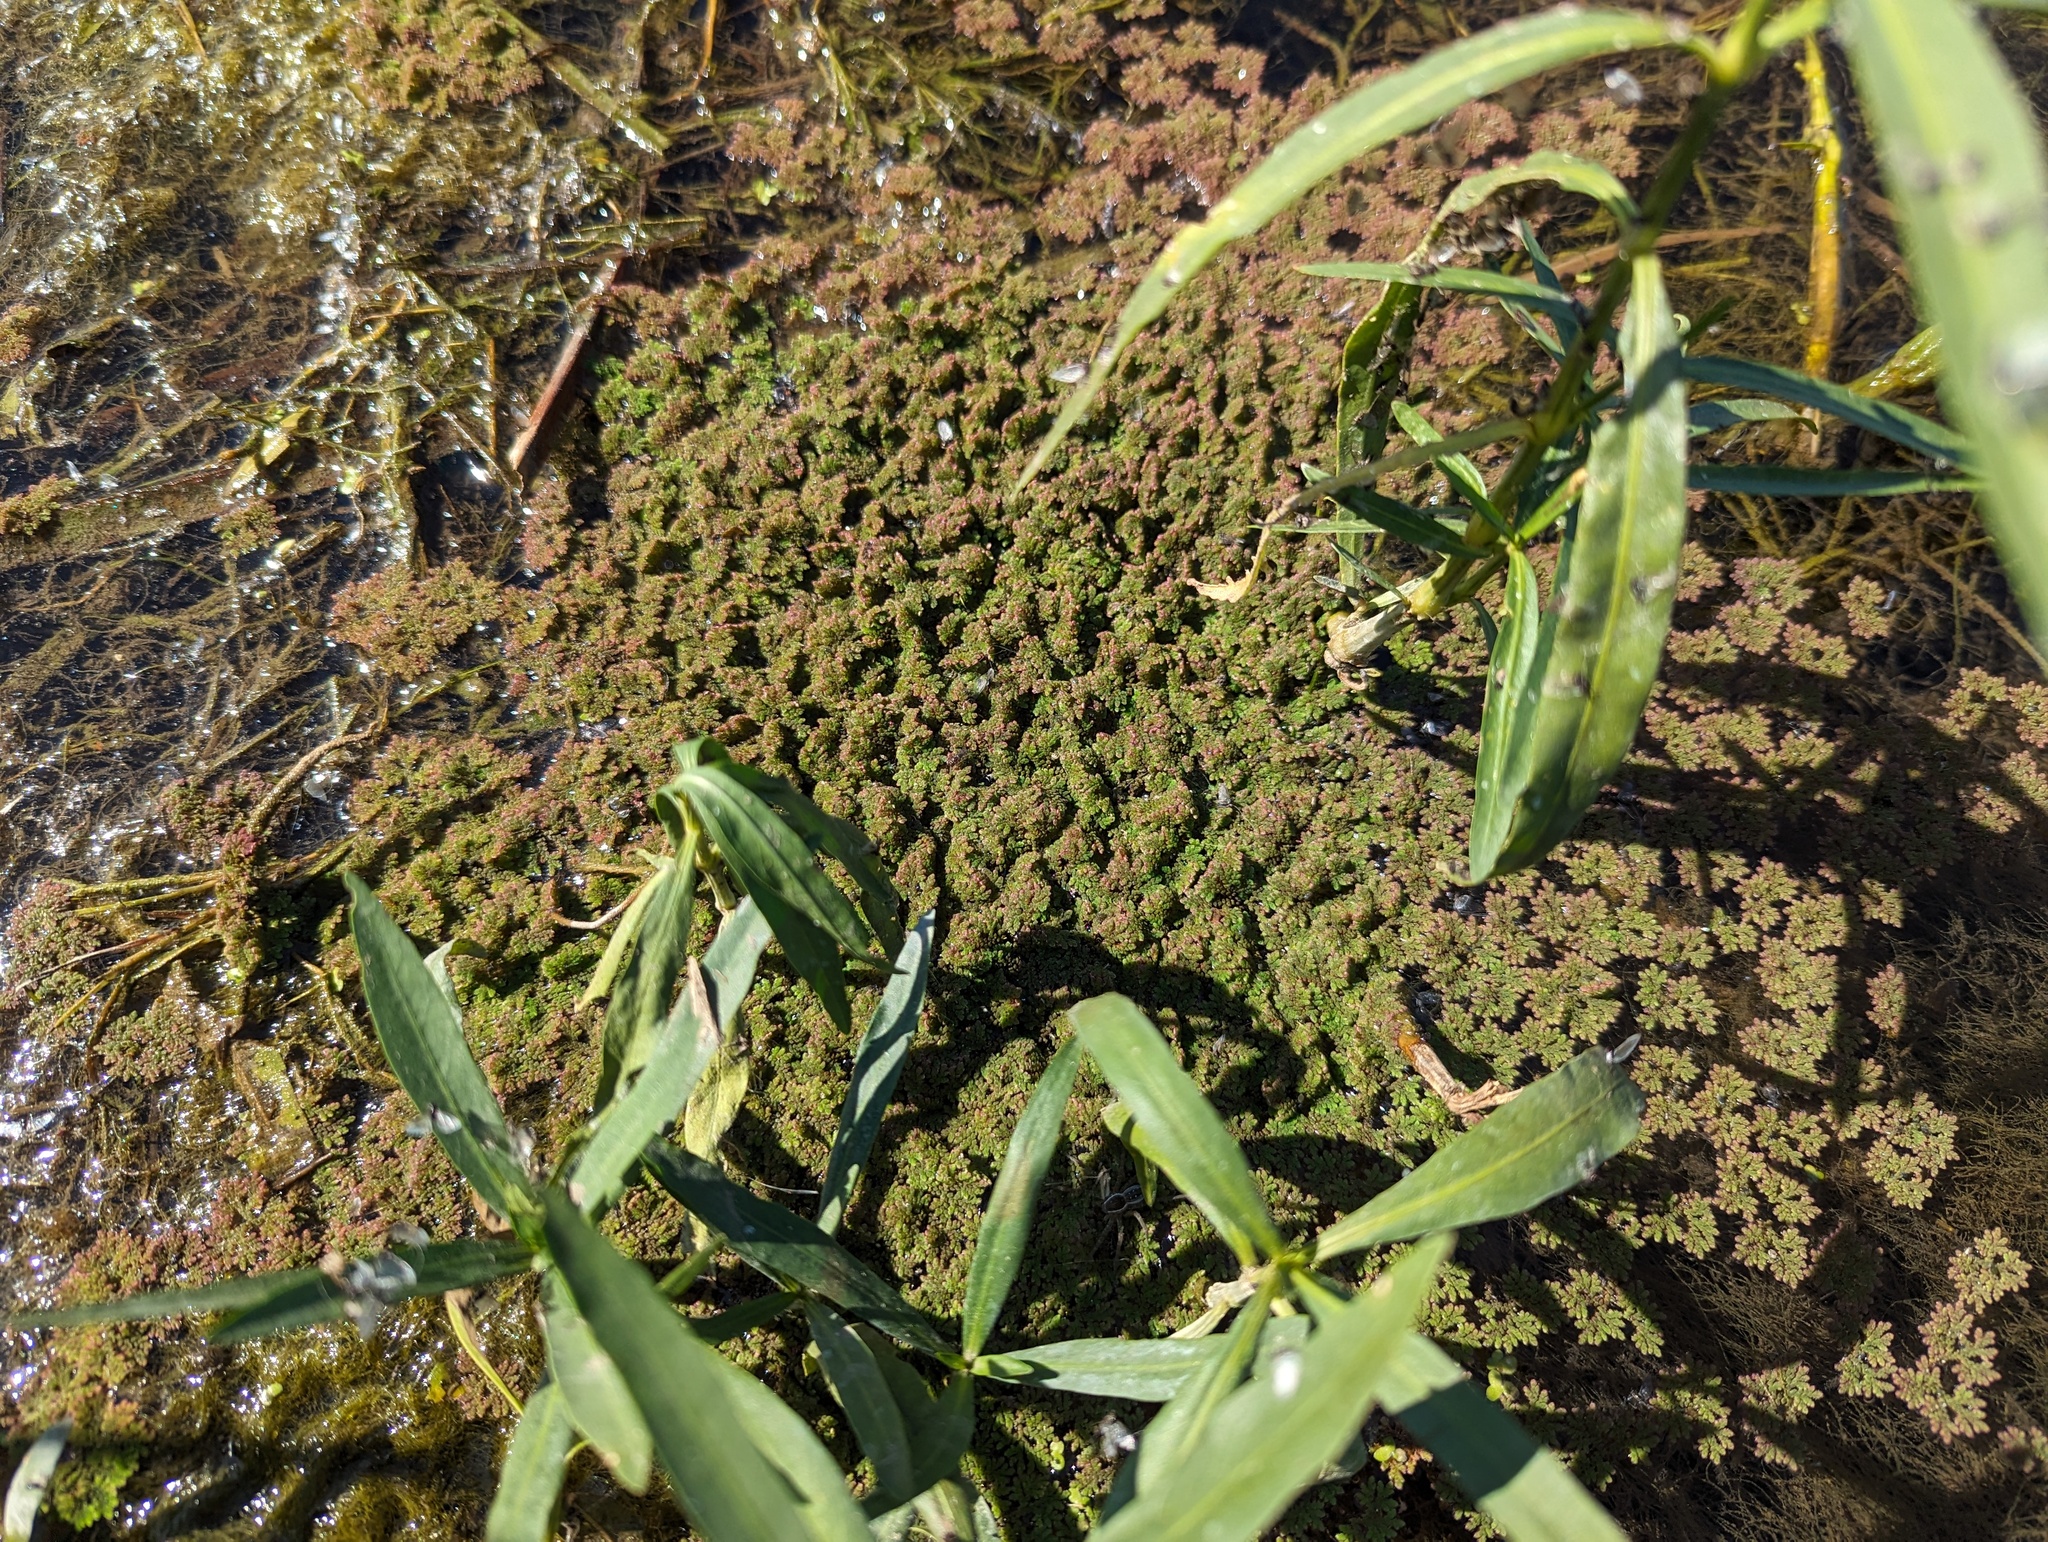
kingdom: Plantae
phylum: Tracheophyta
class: Polypodiopsida
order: Salviniales
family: Salviniaceae
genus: Azolla
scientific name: Azolla caroliniana
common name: Carolina mosquitofern
